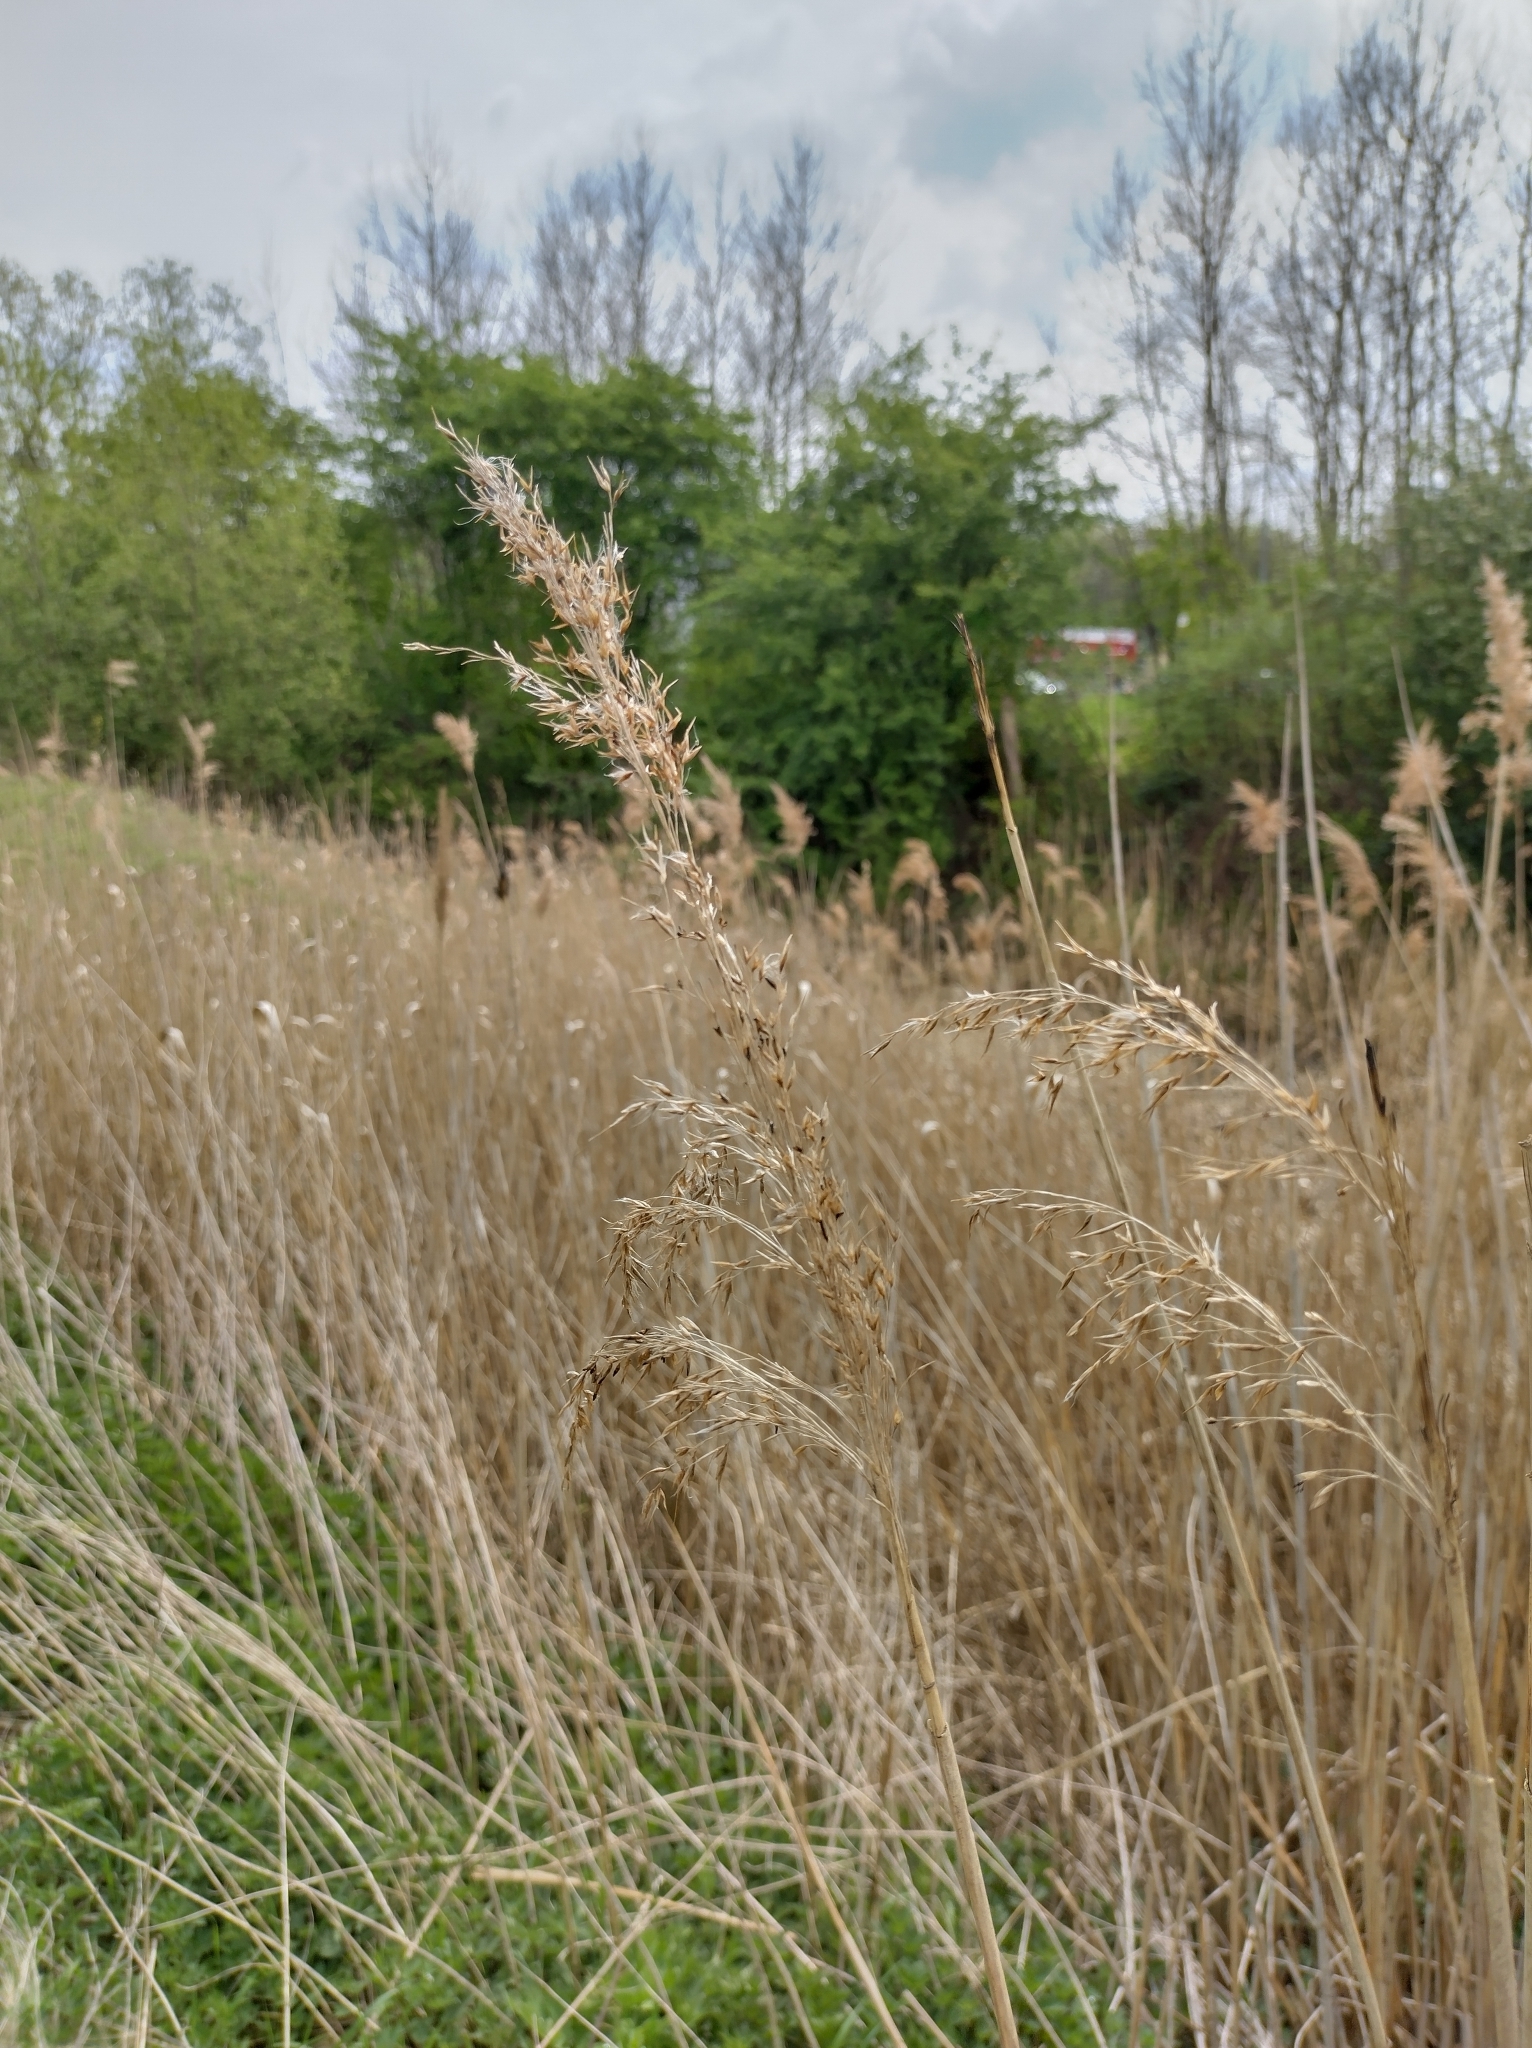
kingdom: Plantae
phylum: Tracheophyta
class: Liliopsida
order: Poales
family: Poaceae
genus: Phragmites
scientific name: Phragmites australis
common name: Common reed
